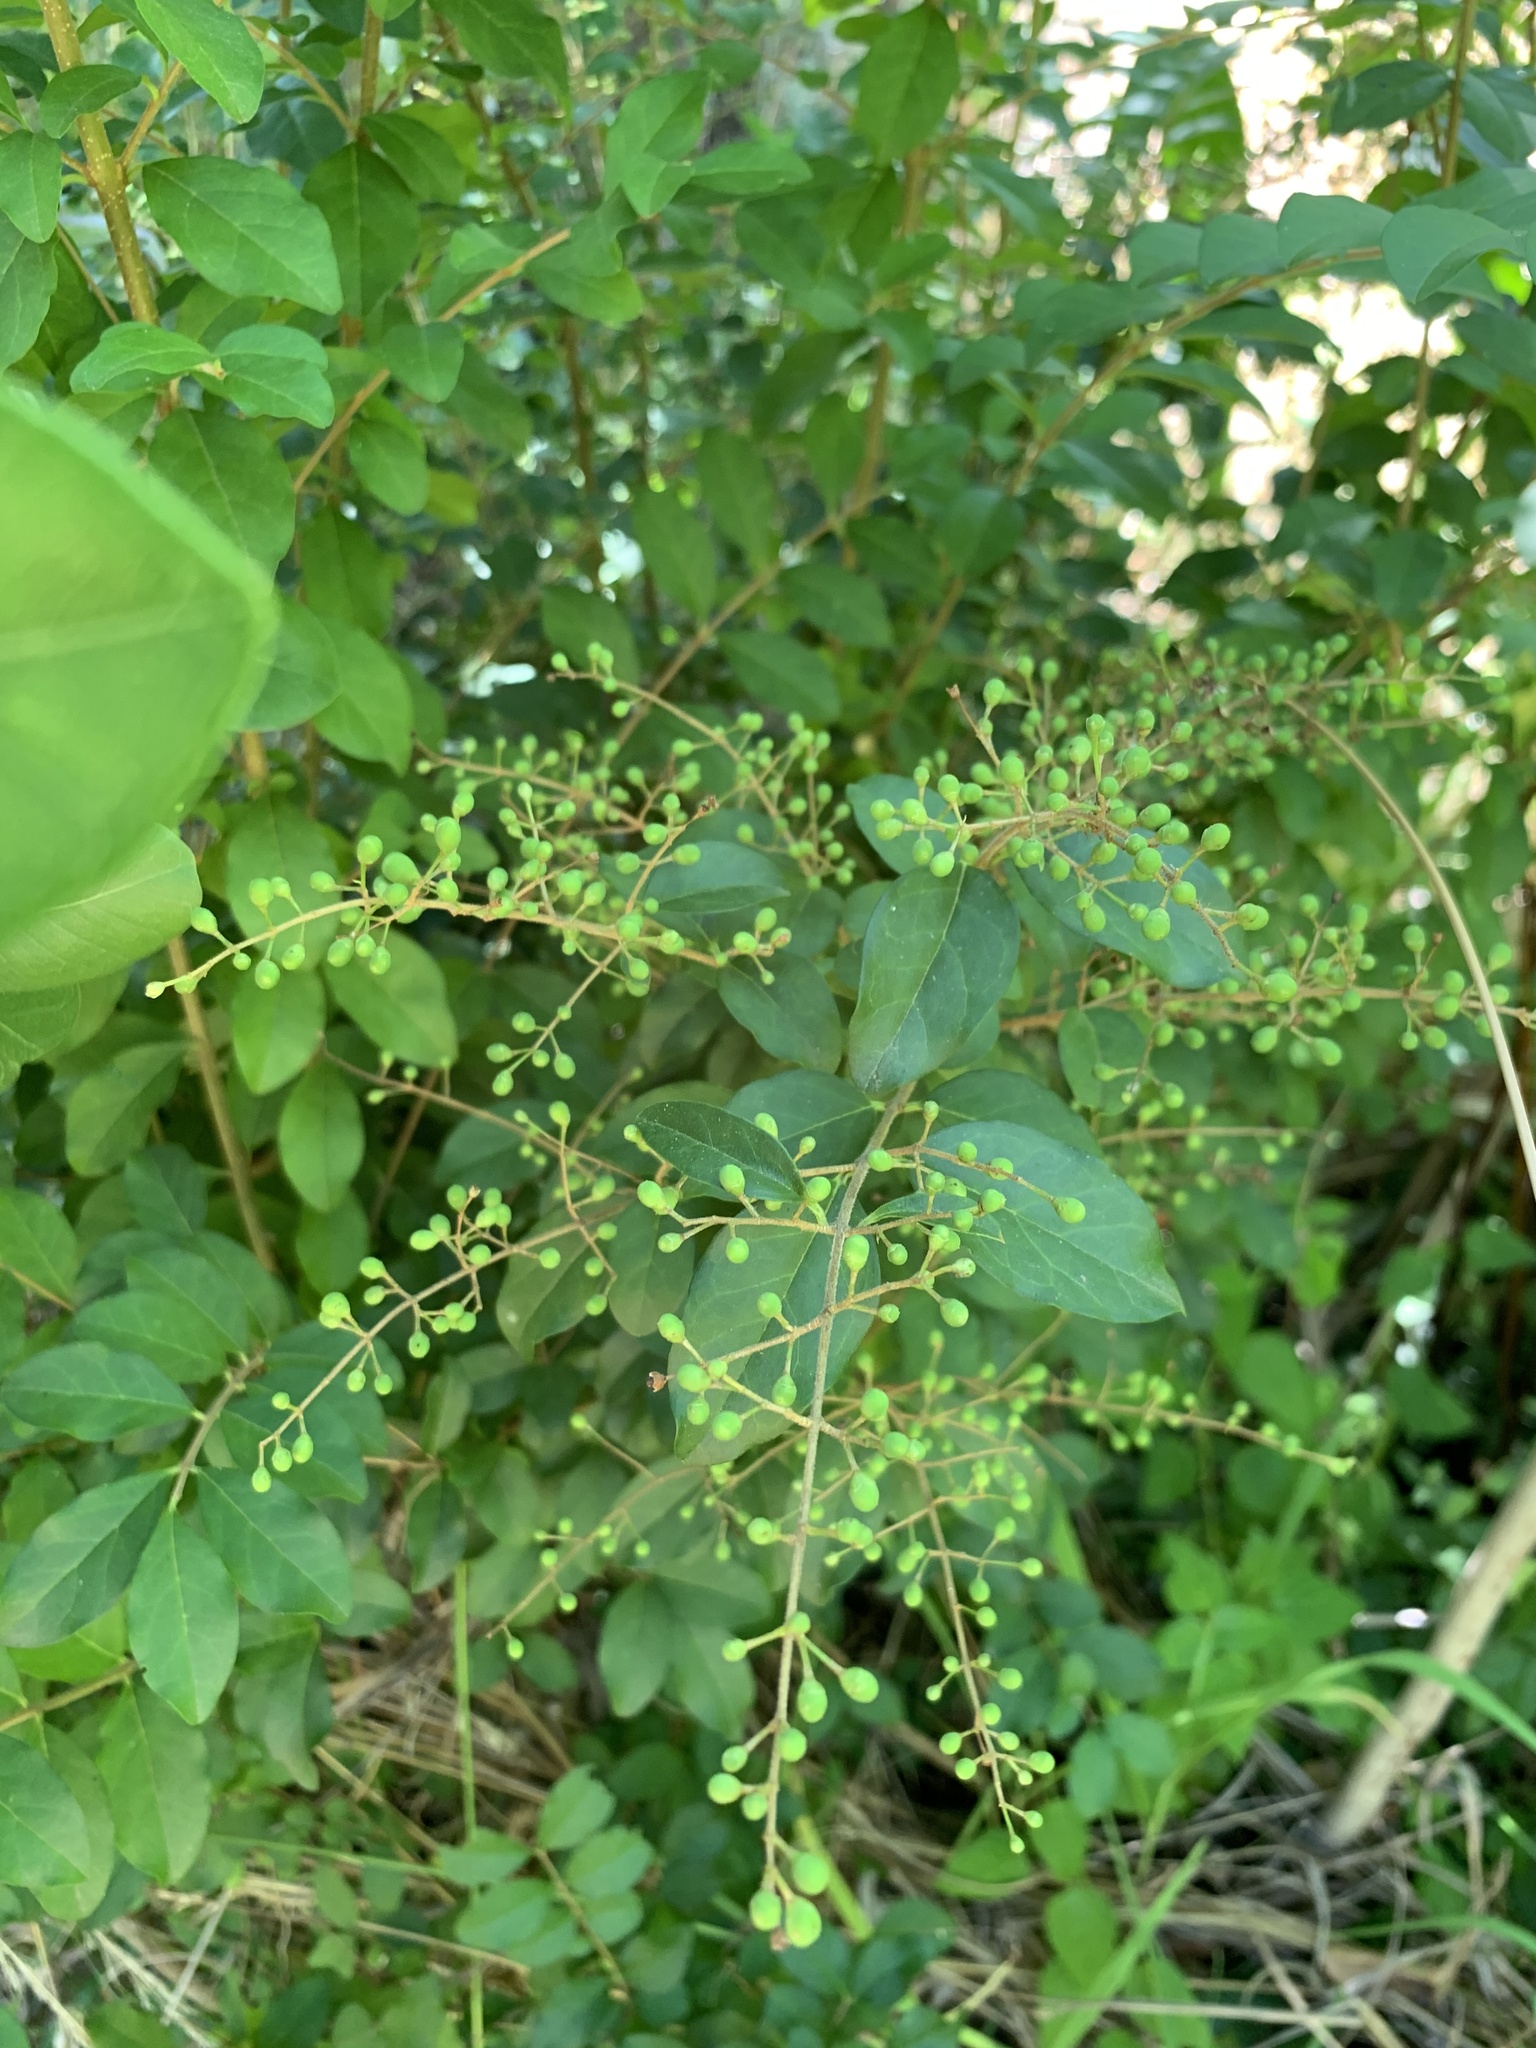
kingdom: Plantae
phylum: Tracheophyta
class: Magnoliopsida
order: Lamiales
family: Oleaceae
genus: Ligustrum
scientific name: Ligustrum sinense
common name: Chinese privet
